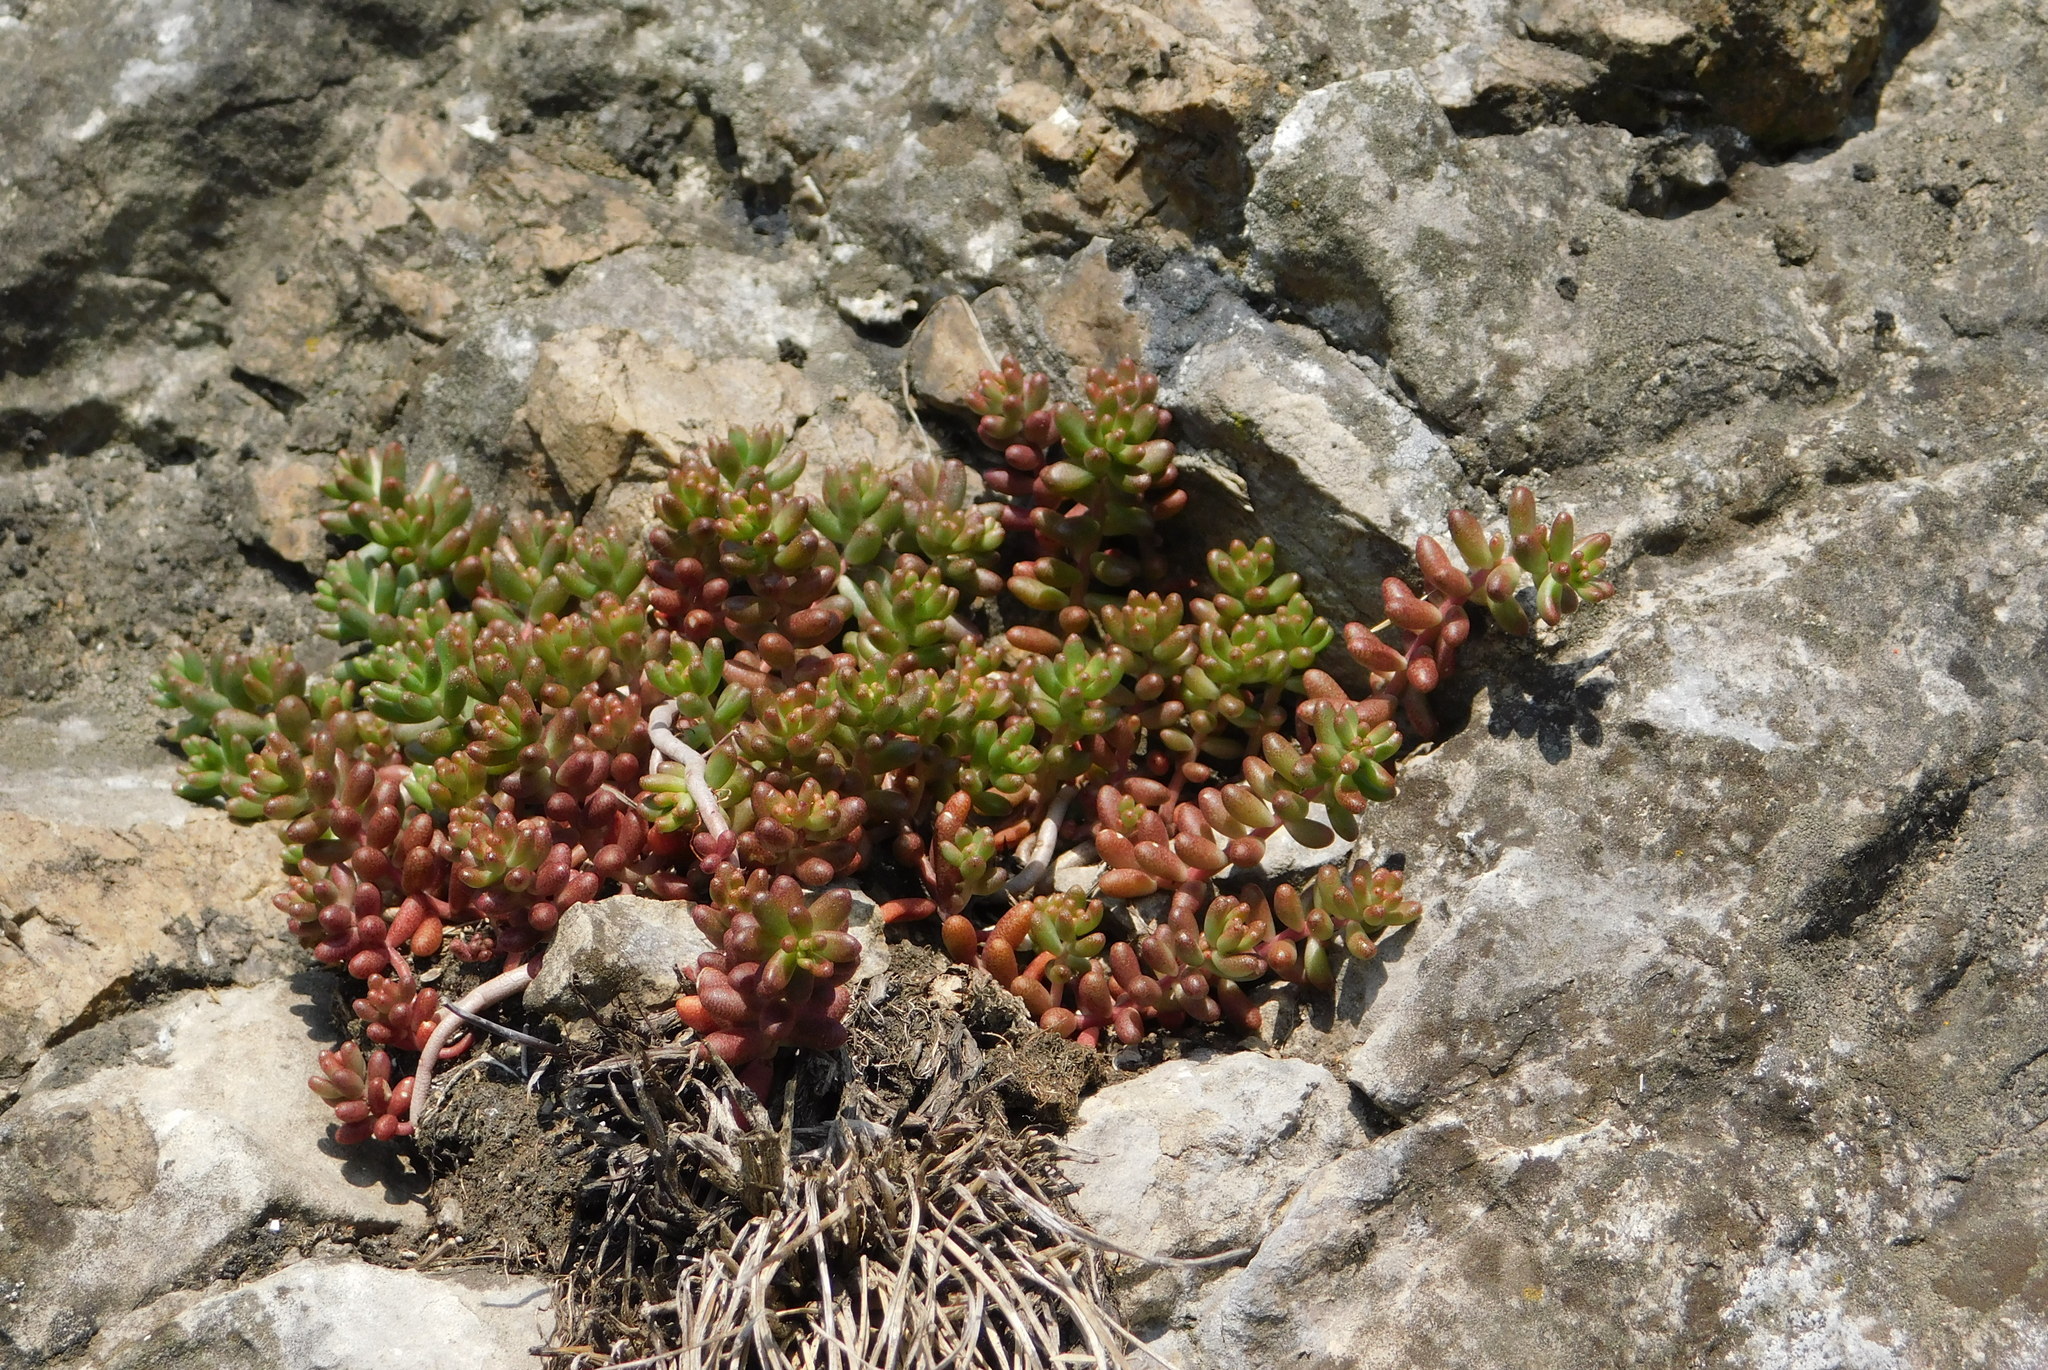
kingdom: Plantae
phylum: Tracheophyta
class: Magnoliopsida
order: Saxifragales
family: Crassulaceae
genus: Sedum
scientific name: Sedum album
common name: White stonecrop
